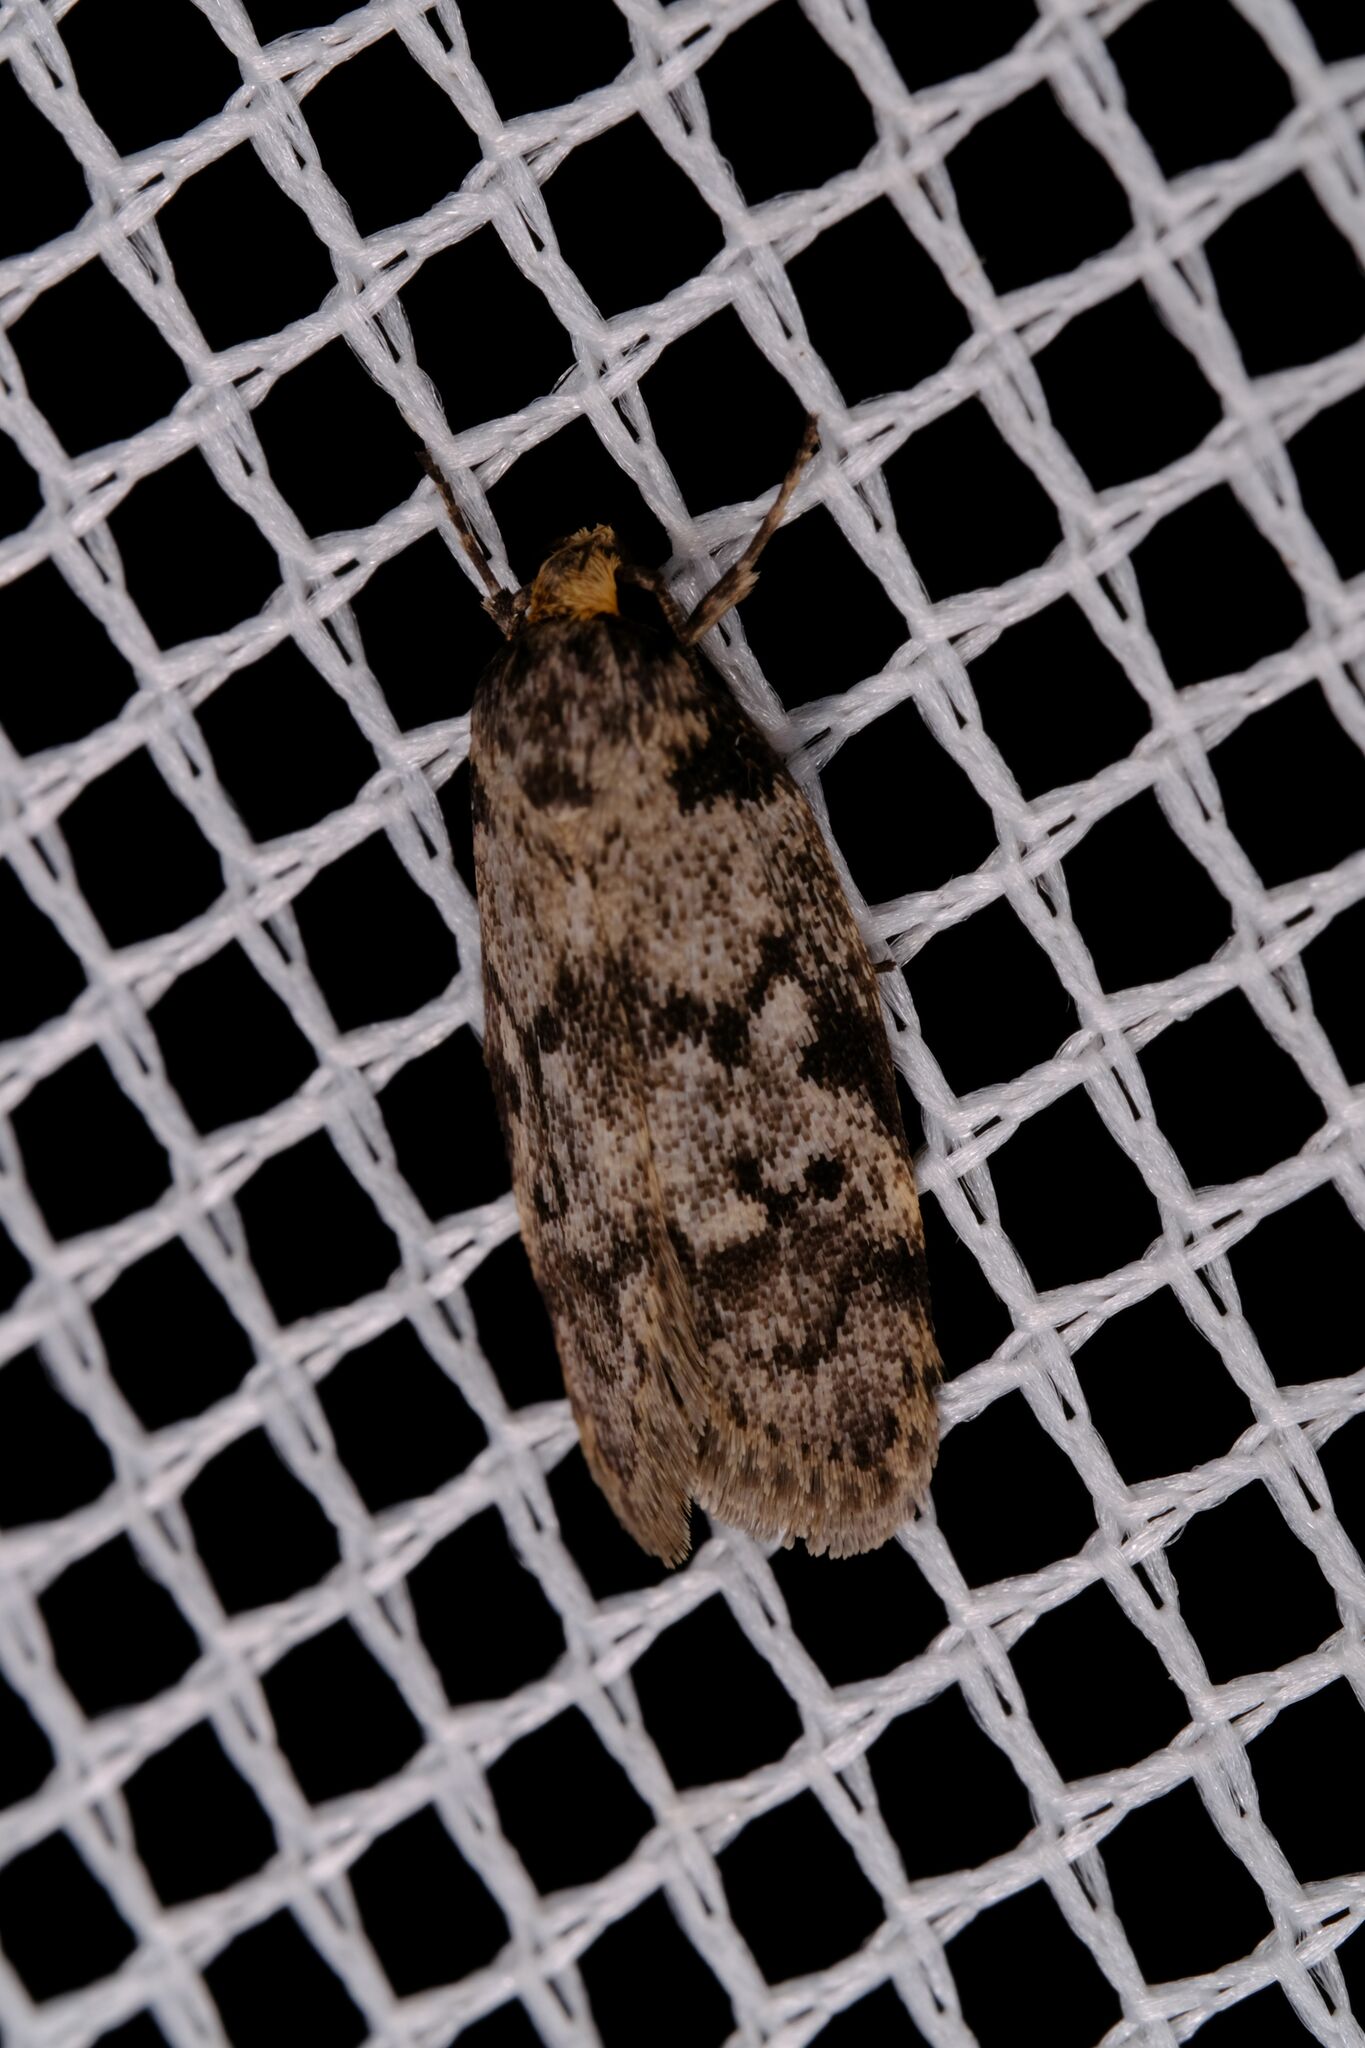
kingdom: Animalia
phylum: Arthropoda
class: Insecta
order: Lepidoptera
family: Oecophoridae
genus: Philobota
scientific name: Philobota cirrhocephala
